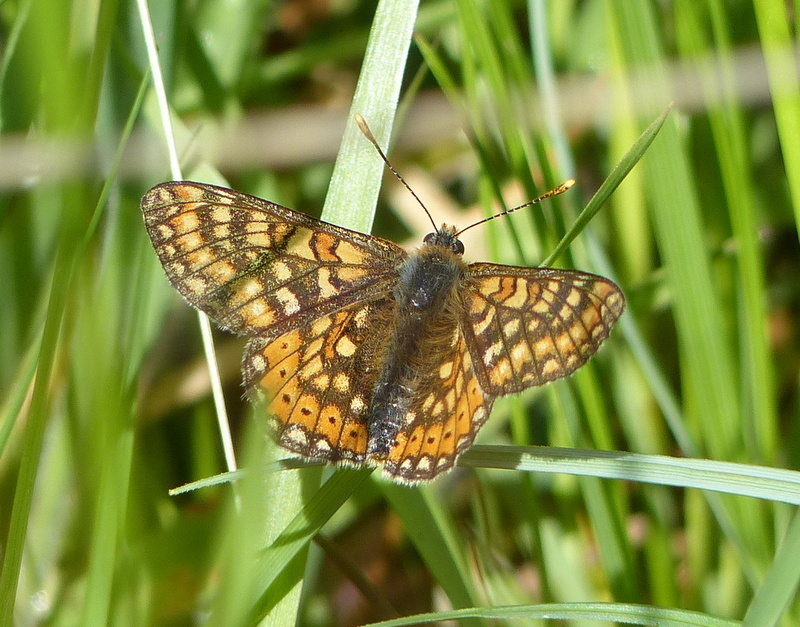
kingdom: Animalia
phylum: Arthropoda
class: Insecta
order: Lepidoptera
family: Nymphalidae
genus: Euphydryas
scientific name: Euphydryas aurinia
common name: Marsh fritillary
